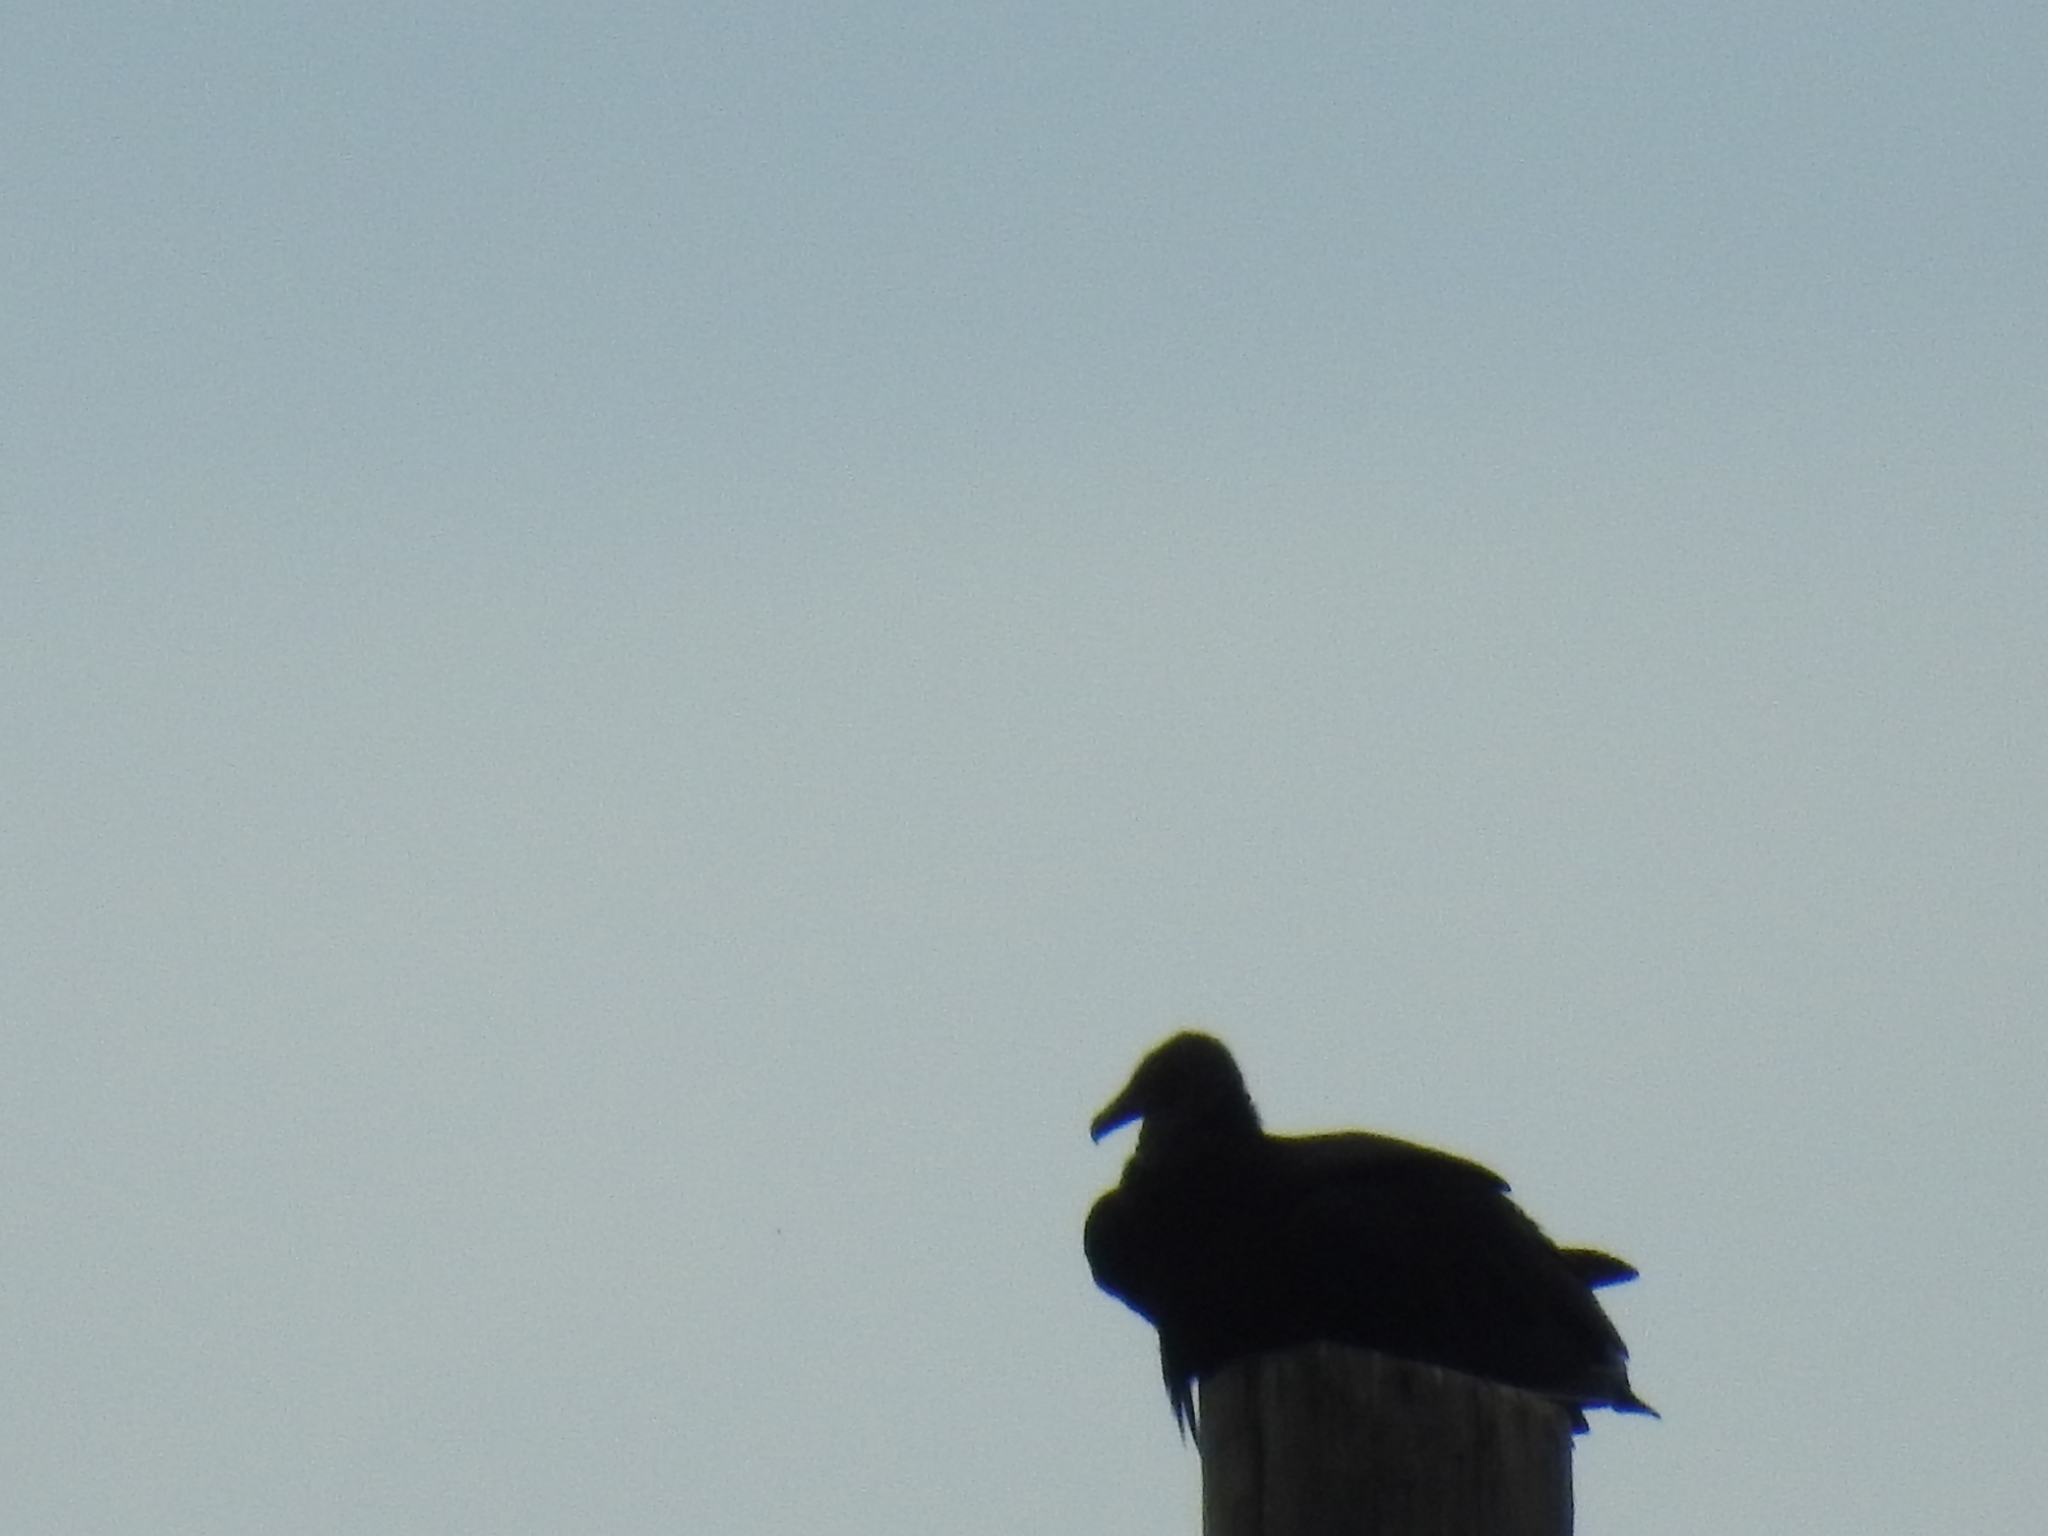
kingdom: Animalia
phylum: Chordata
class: Aves
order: Accipitriformes
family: Cathartidae
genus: Coragyps
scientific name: Coragyps atratus
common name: Black vulture
